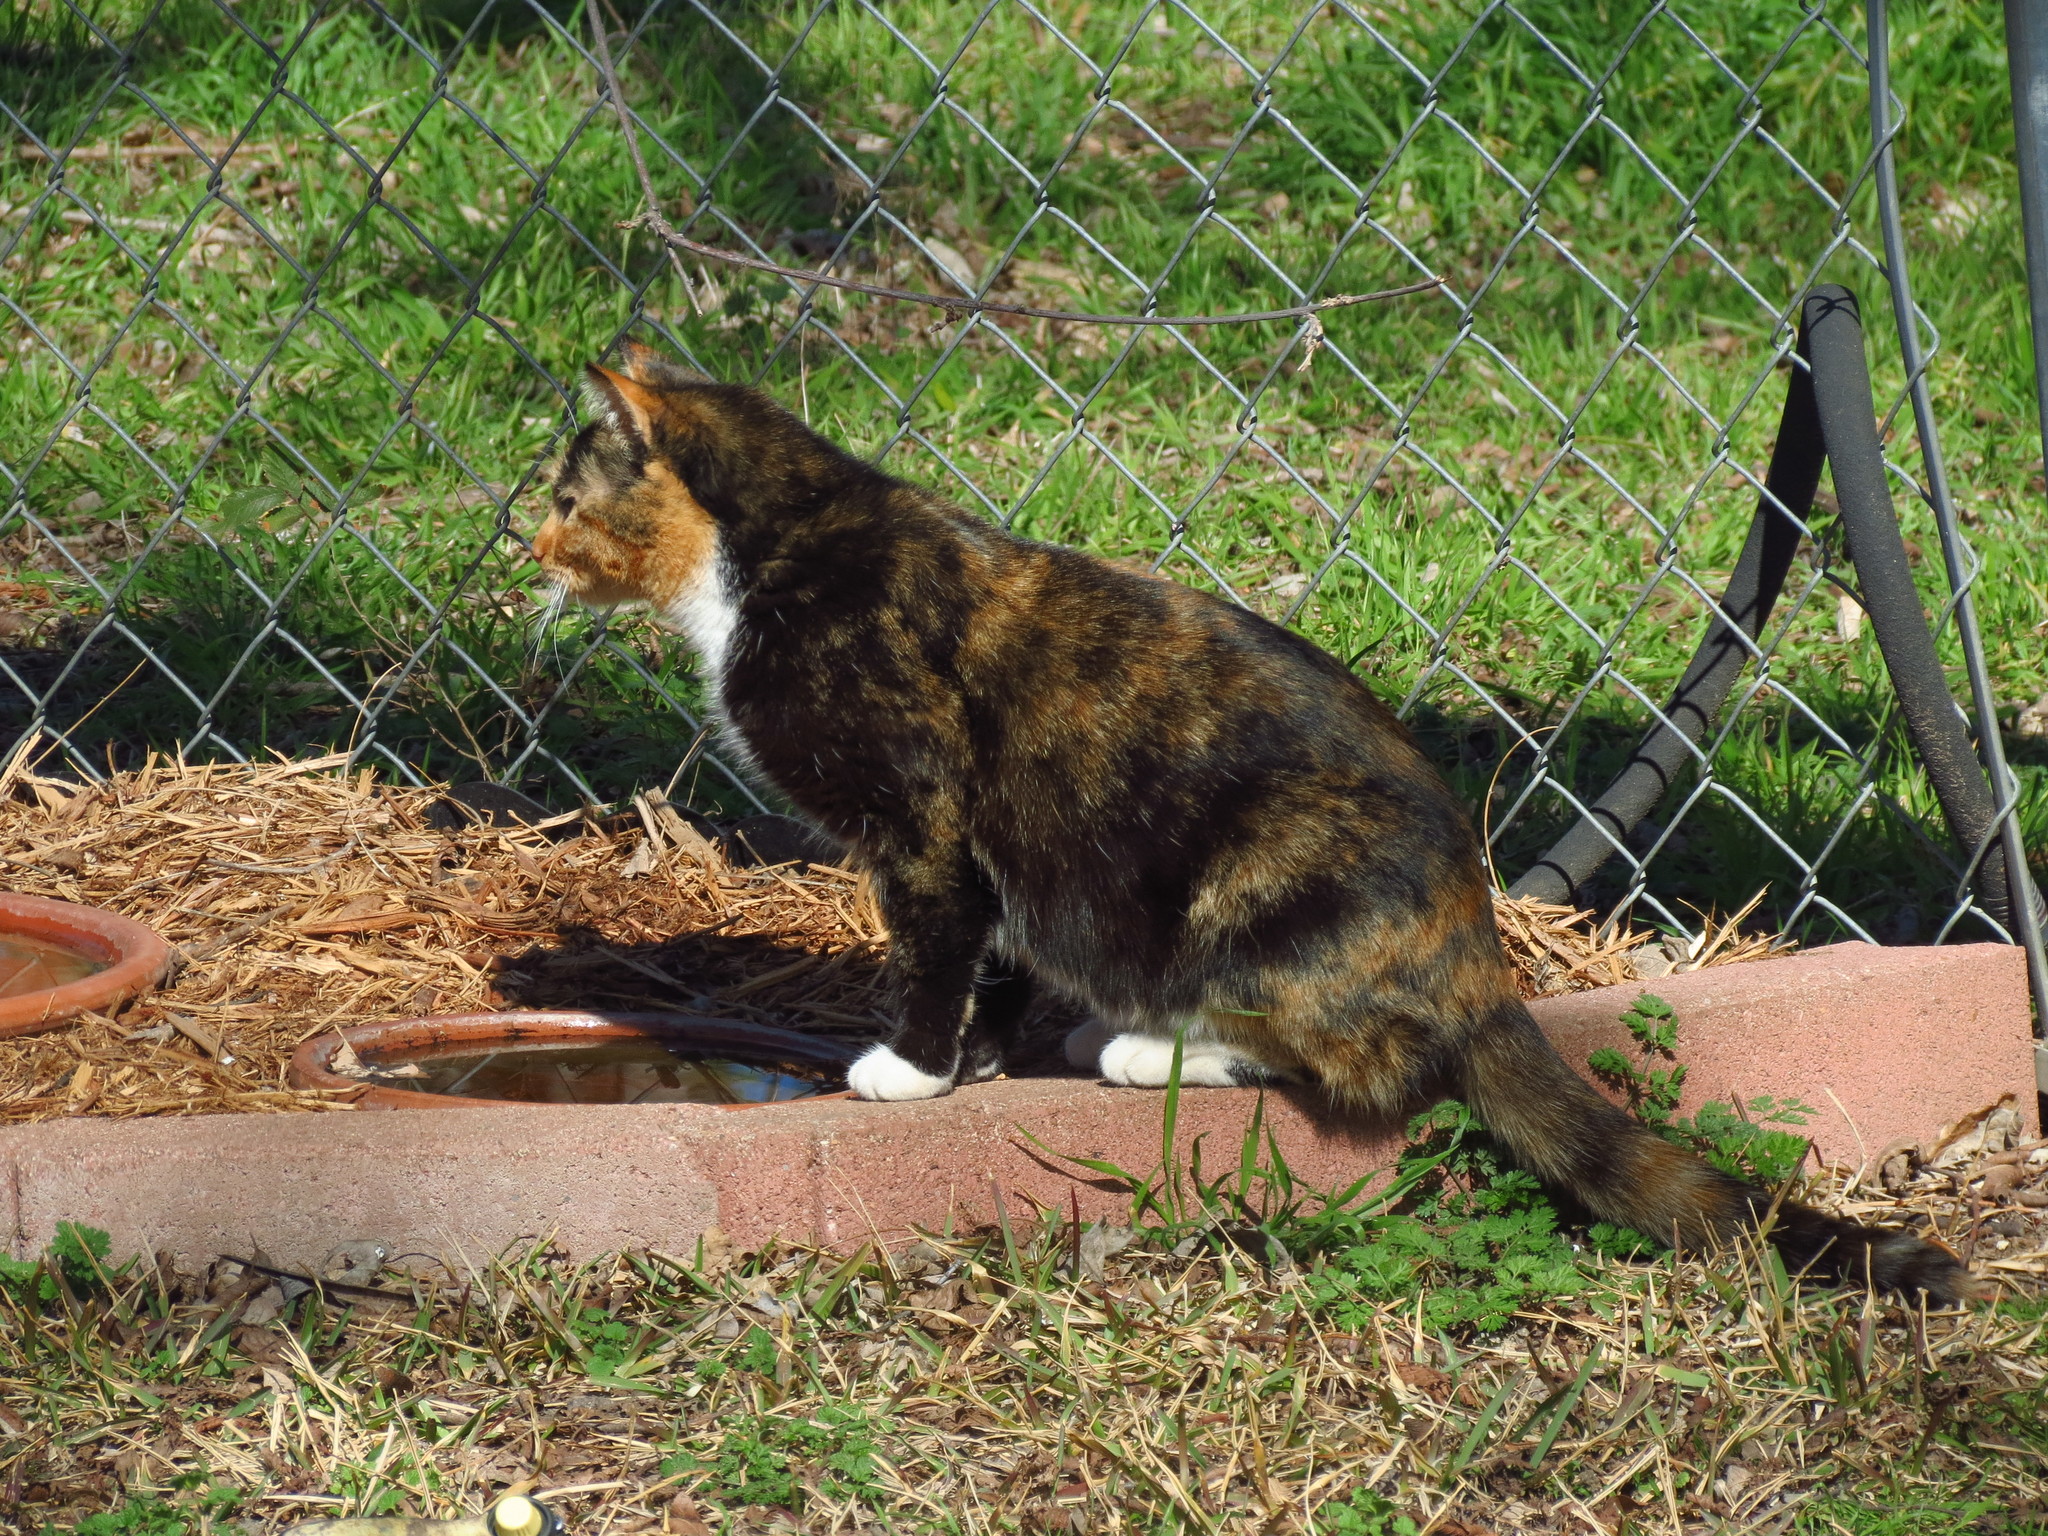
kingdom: Animalia
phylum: Chordata
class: Mammalia
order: Carnivora
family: Felidae
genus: Felis
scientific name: Felis catus
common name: Domestic cat
